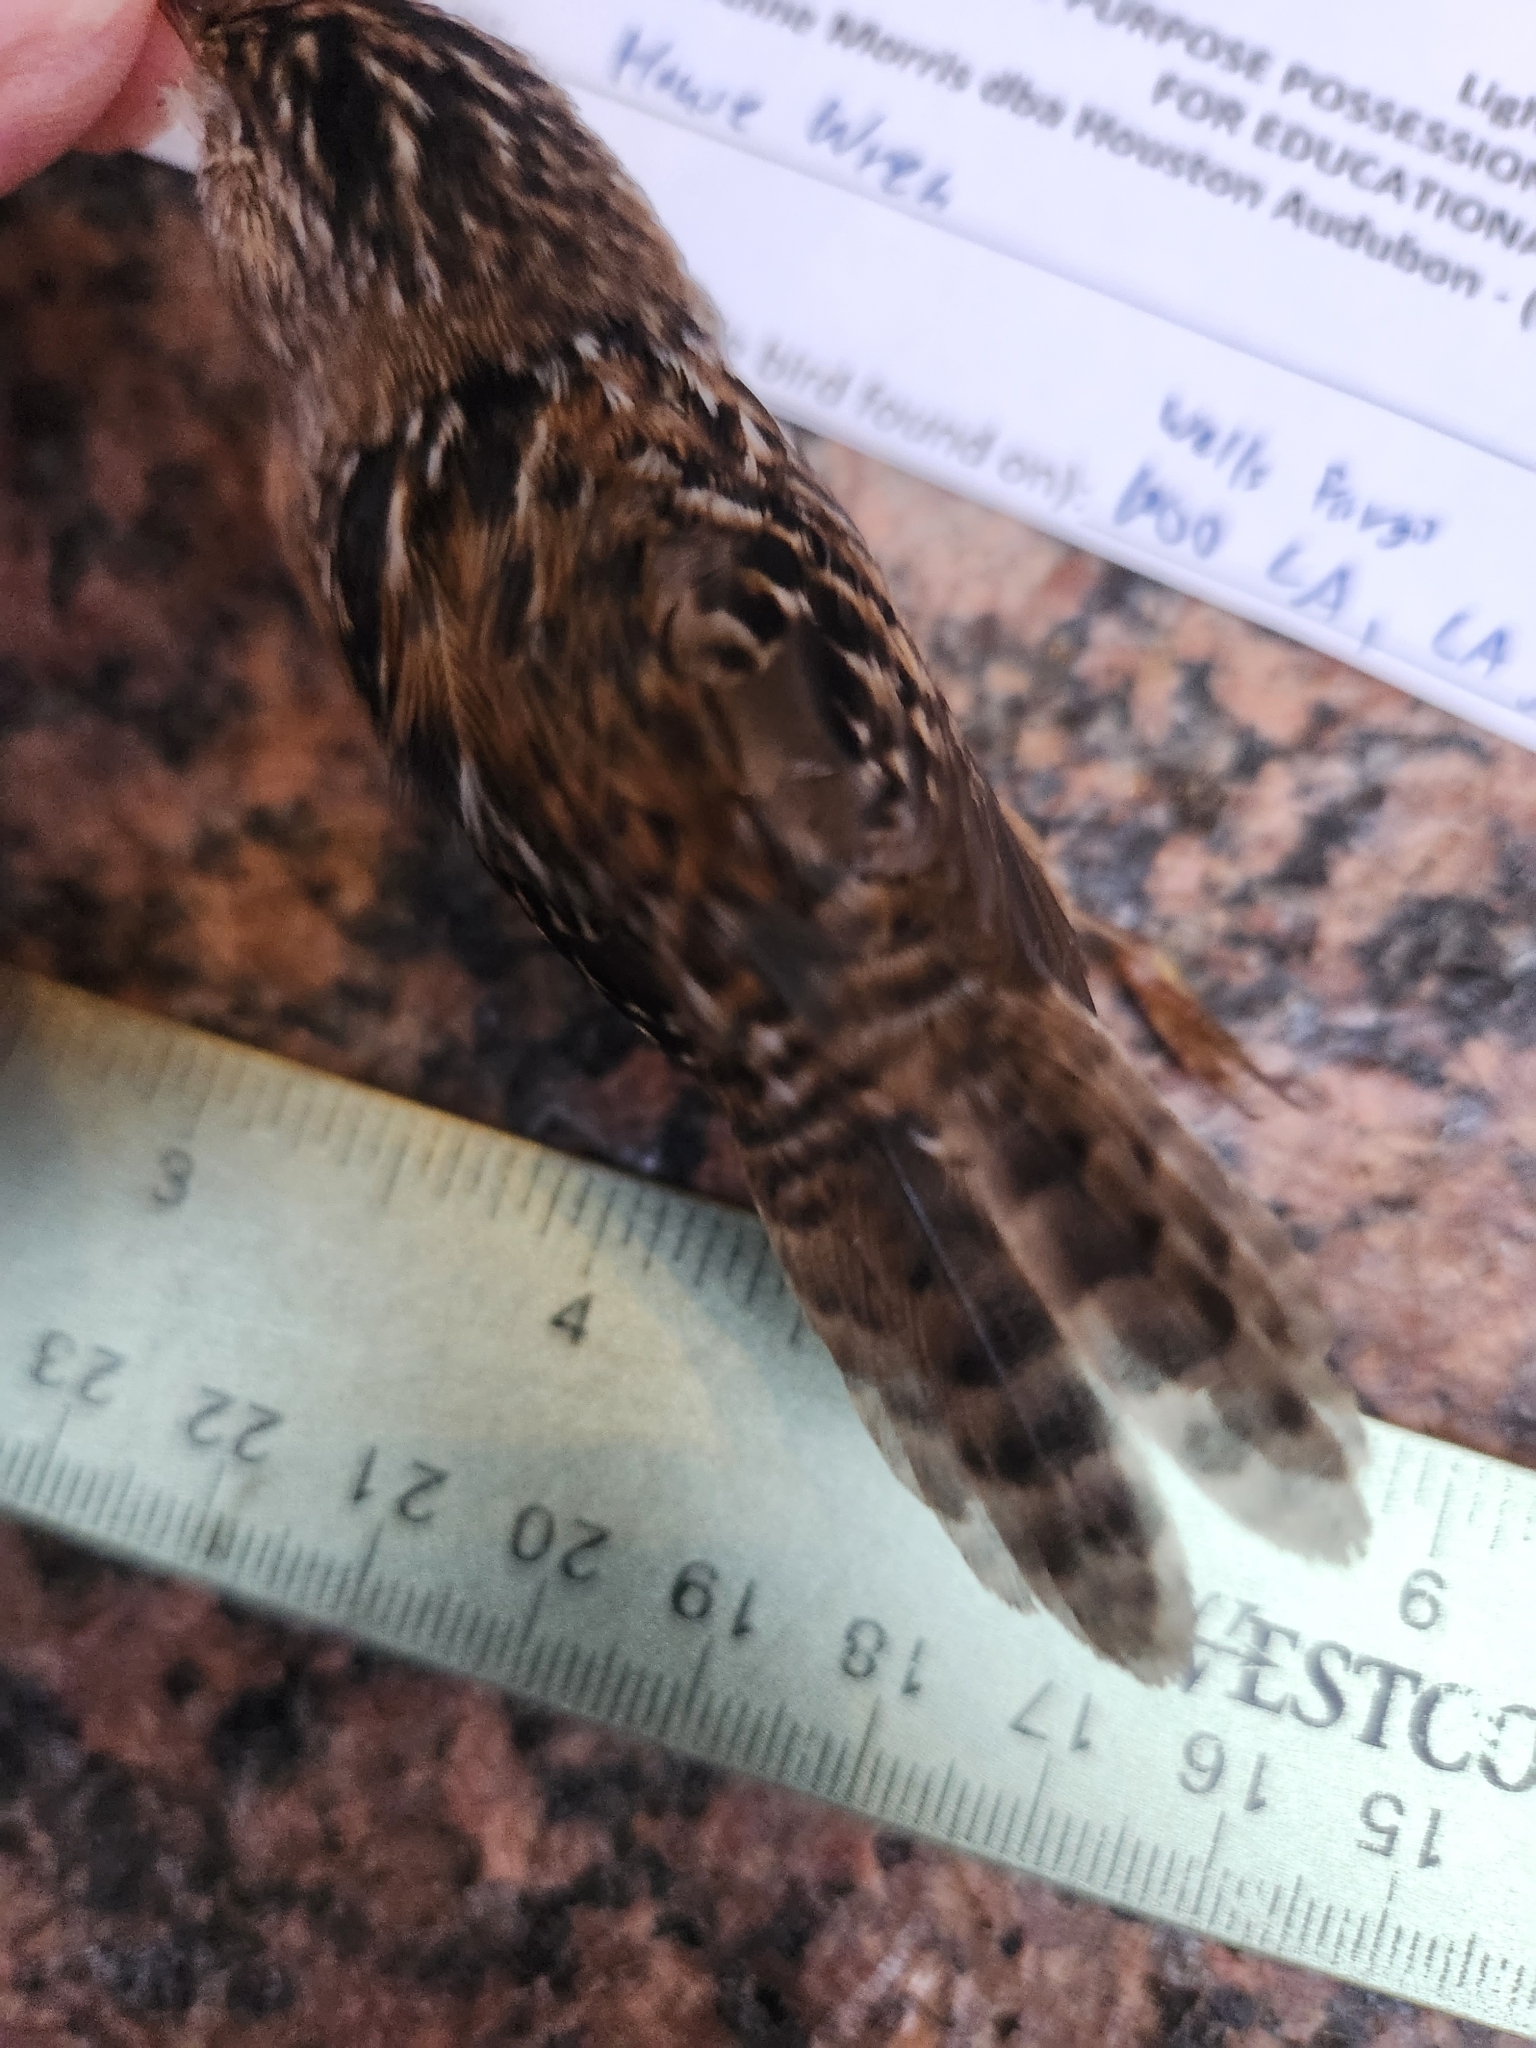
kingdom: Animalia
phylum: Chordata
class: Aves
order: Passeriformes
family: Troglodytidae
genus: Cistothorus
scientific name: Cistothorus platensis
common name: Sedge wren
